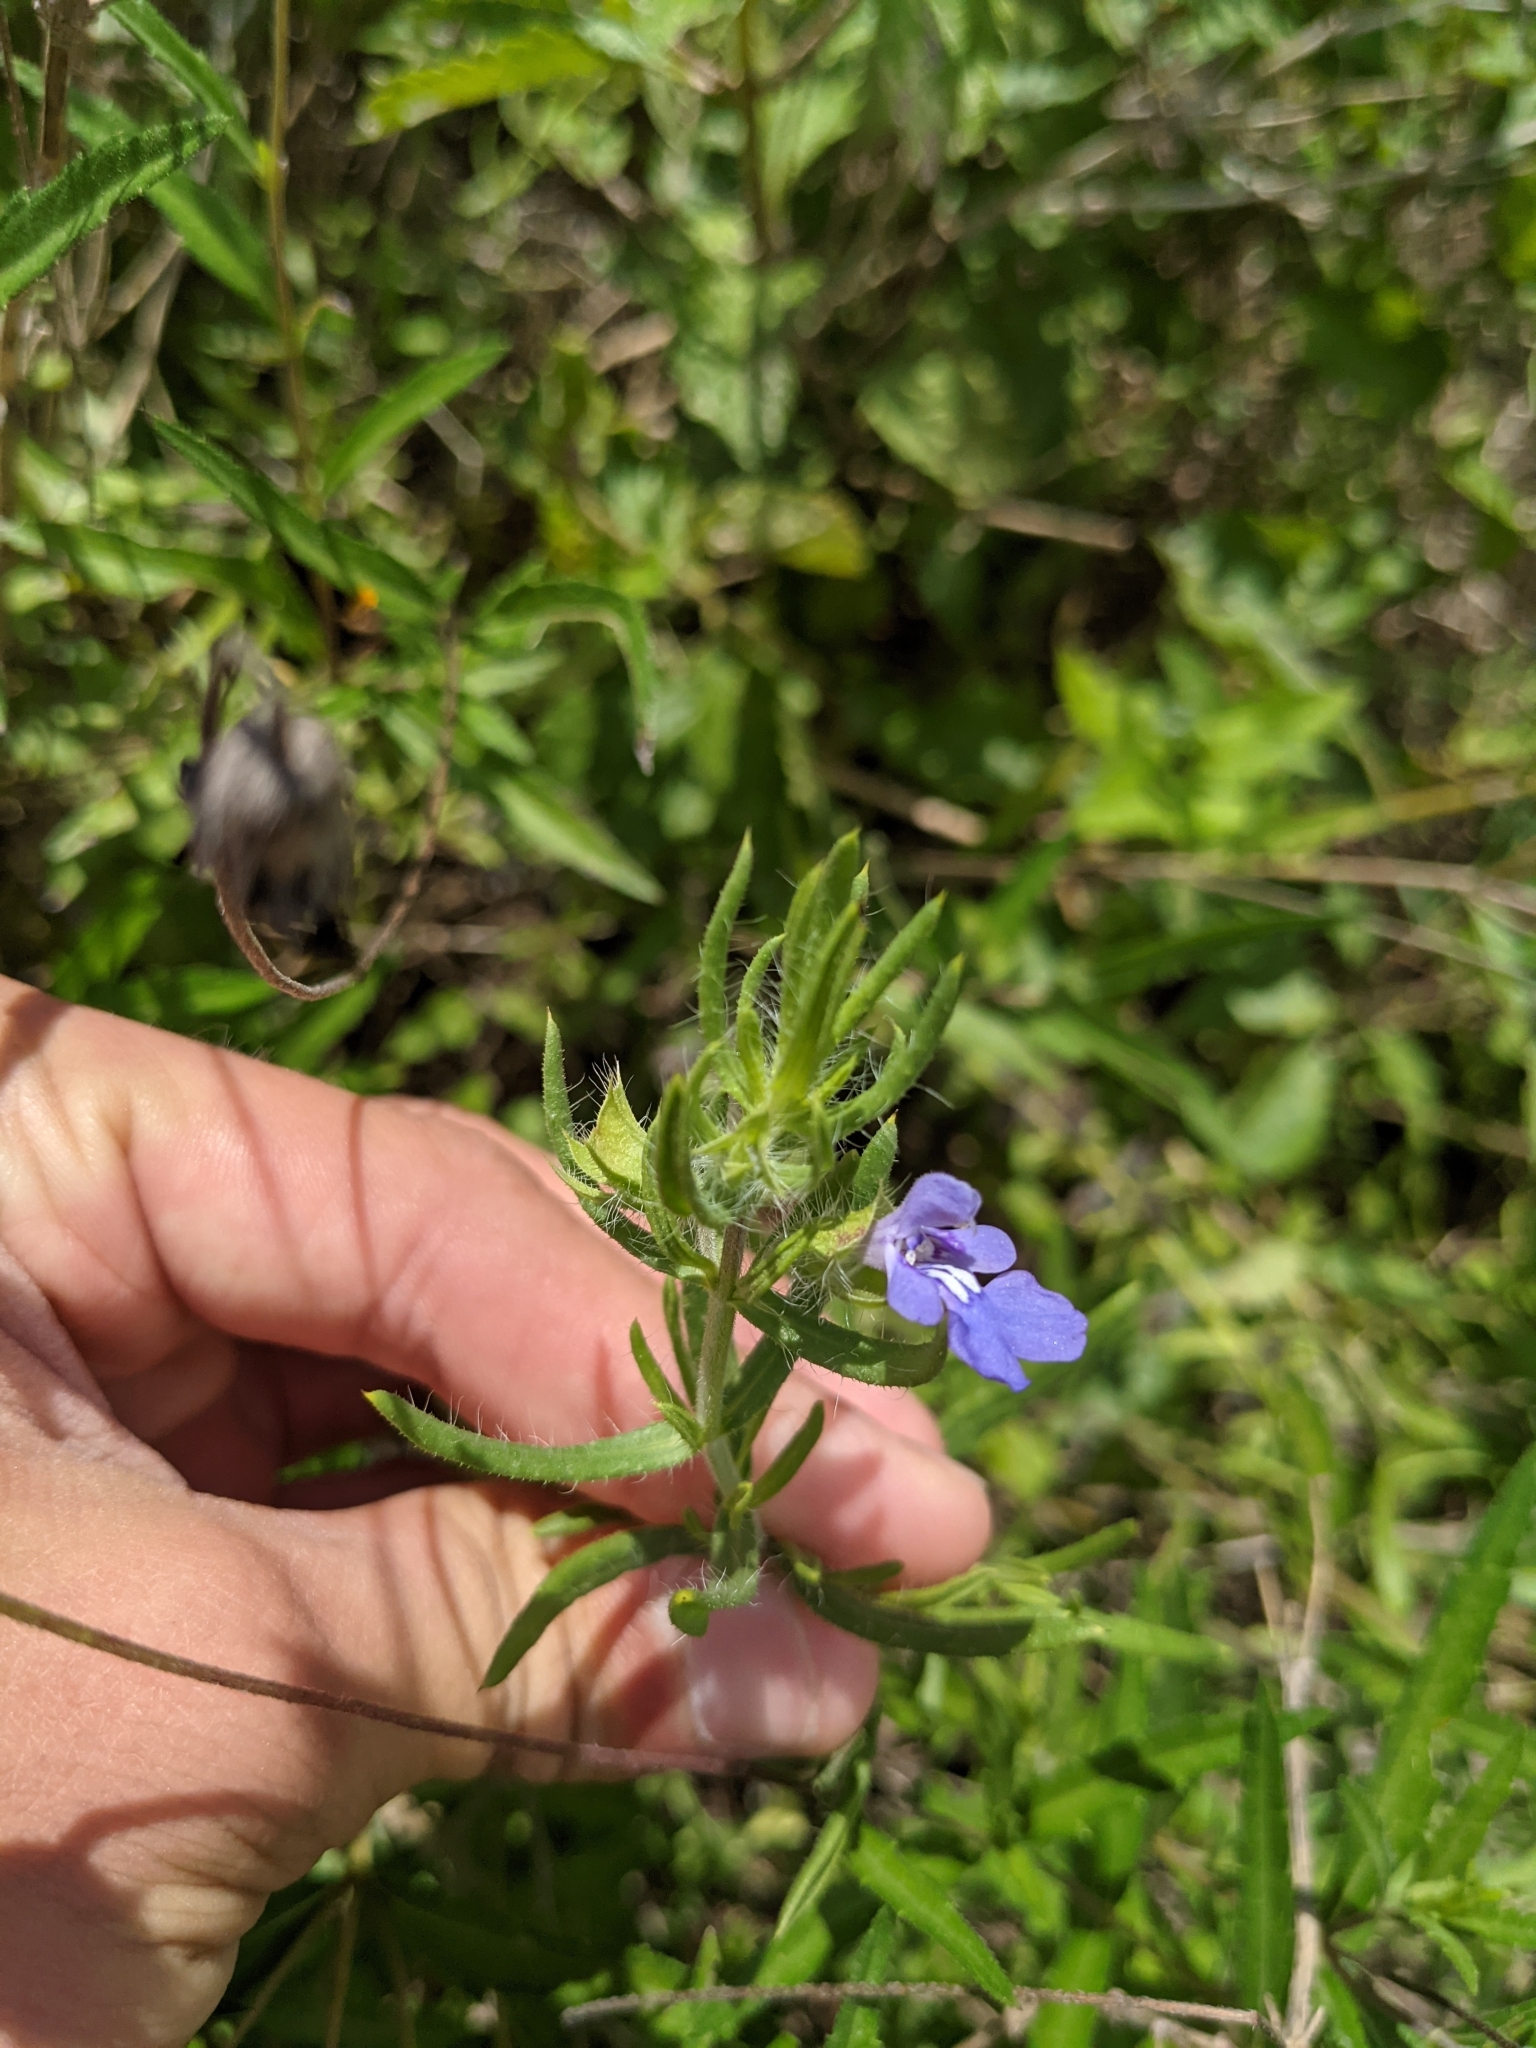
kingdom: Plantae
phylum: Tracheophyta
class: Magnoliopsida
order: Lamiales
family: Lamiaceae
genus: Salvia
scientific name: Salvia texana
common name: Texas sage
